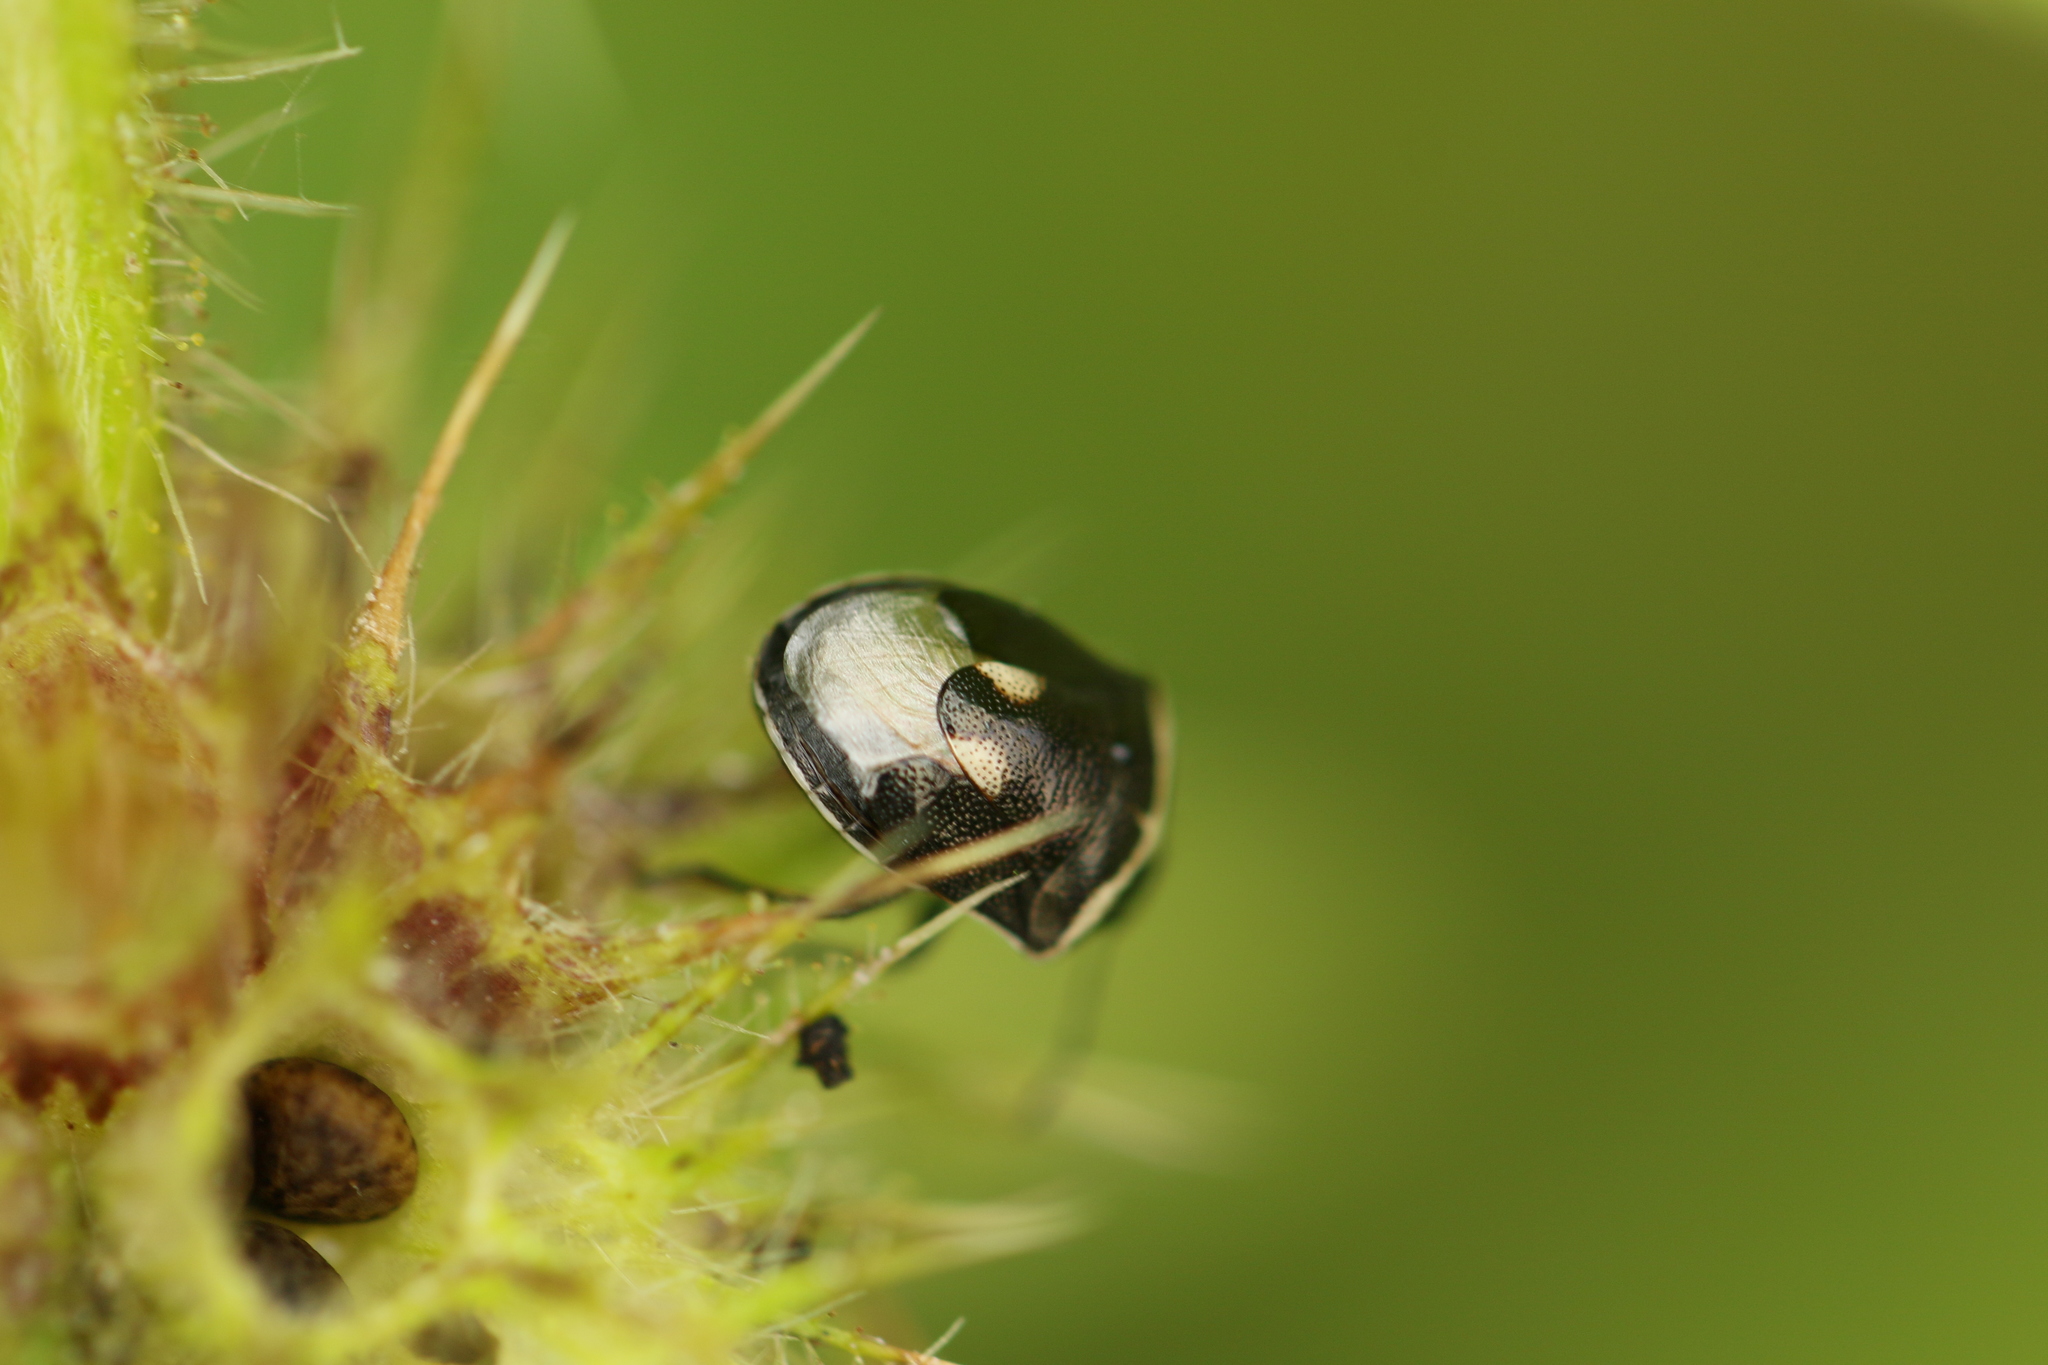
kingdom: Animalia
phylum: Arthropoda
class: Insecta
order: Hemiptera
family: Pentatomidae
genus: Cosmopepla
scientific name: Cosmopepla lintneriana
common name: Twice-stabbed stink bug
